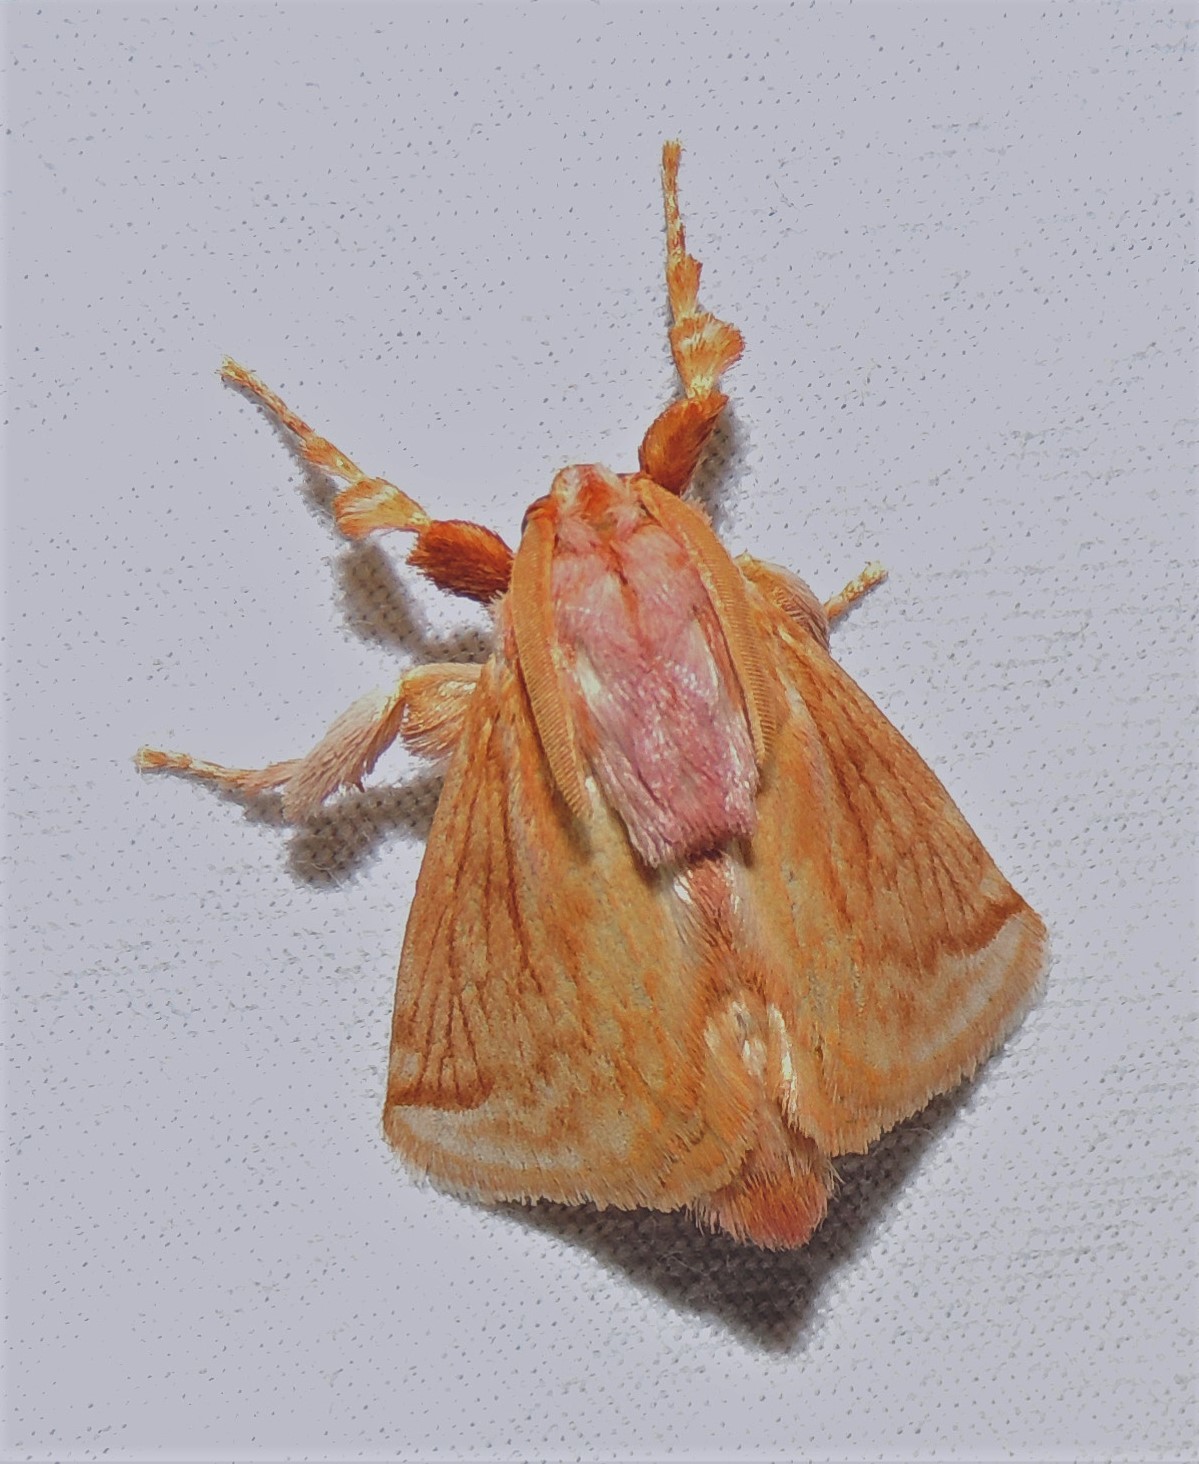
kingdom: Animalia
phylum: Arthropoda
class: Insecta
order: Lepidoptera
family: Limacodidae
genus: Perola
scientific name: Perola villosipes
